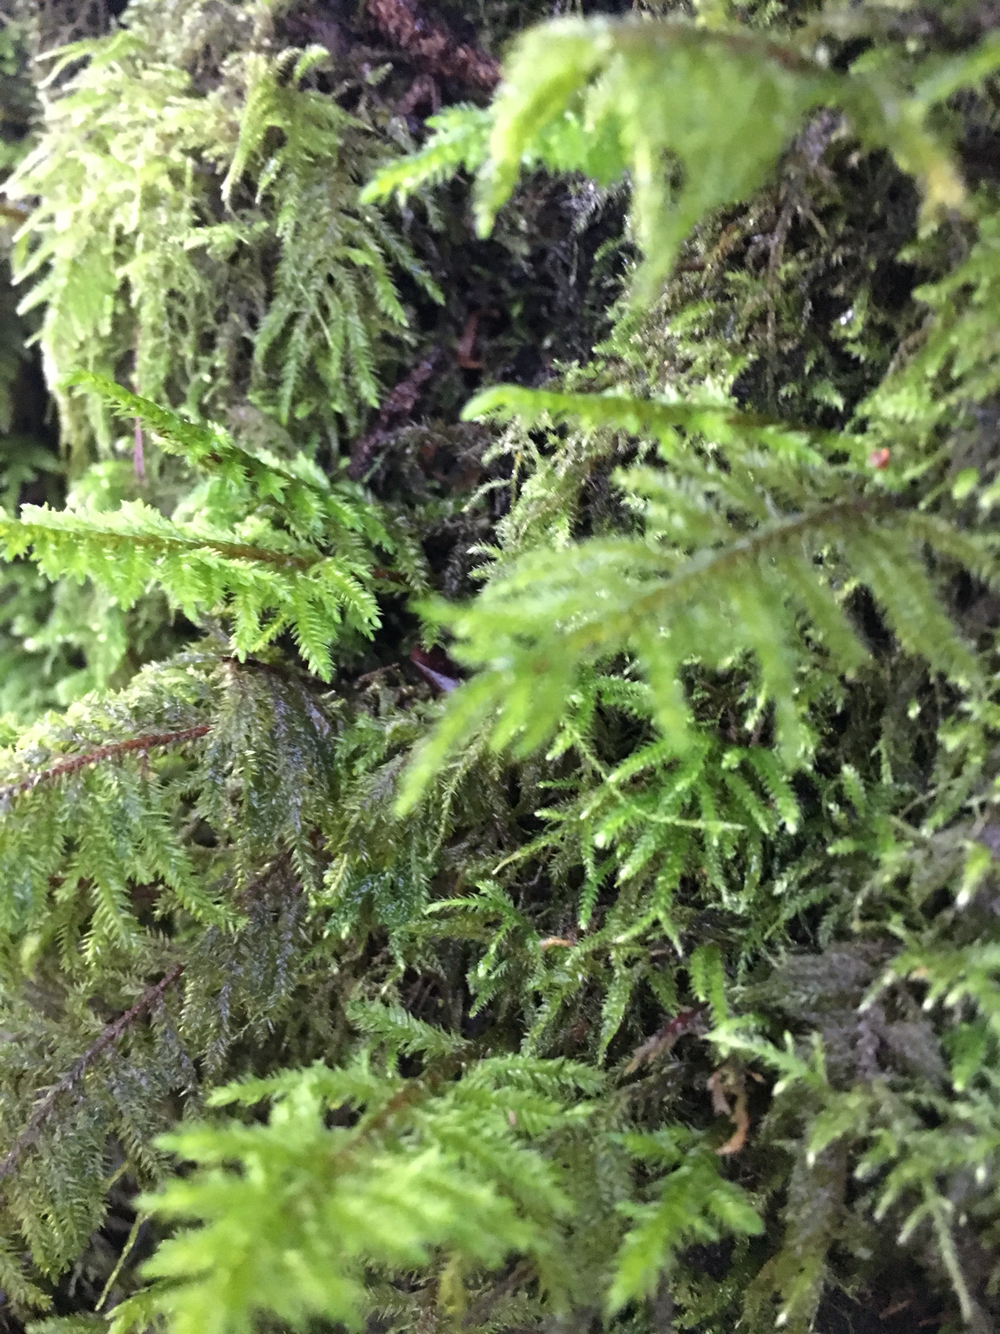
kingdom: Plantae
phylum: Bryophyta
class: Bryopsida
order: Hypnales
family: Cryphaeaceae
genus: Dendroalsia
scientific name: Dendroalsia abietina
